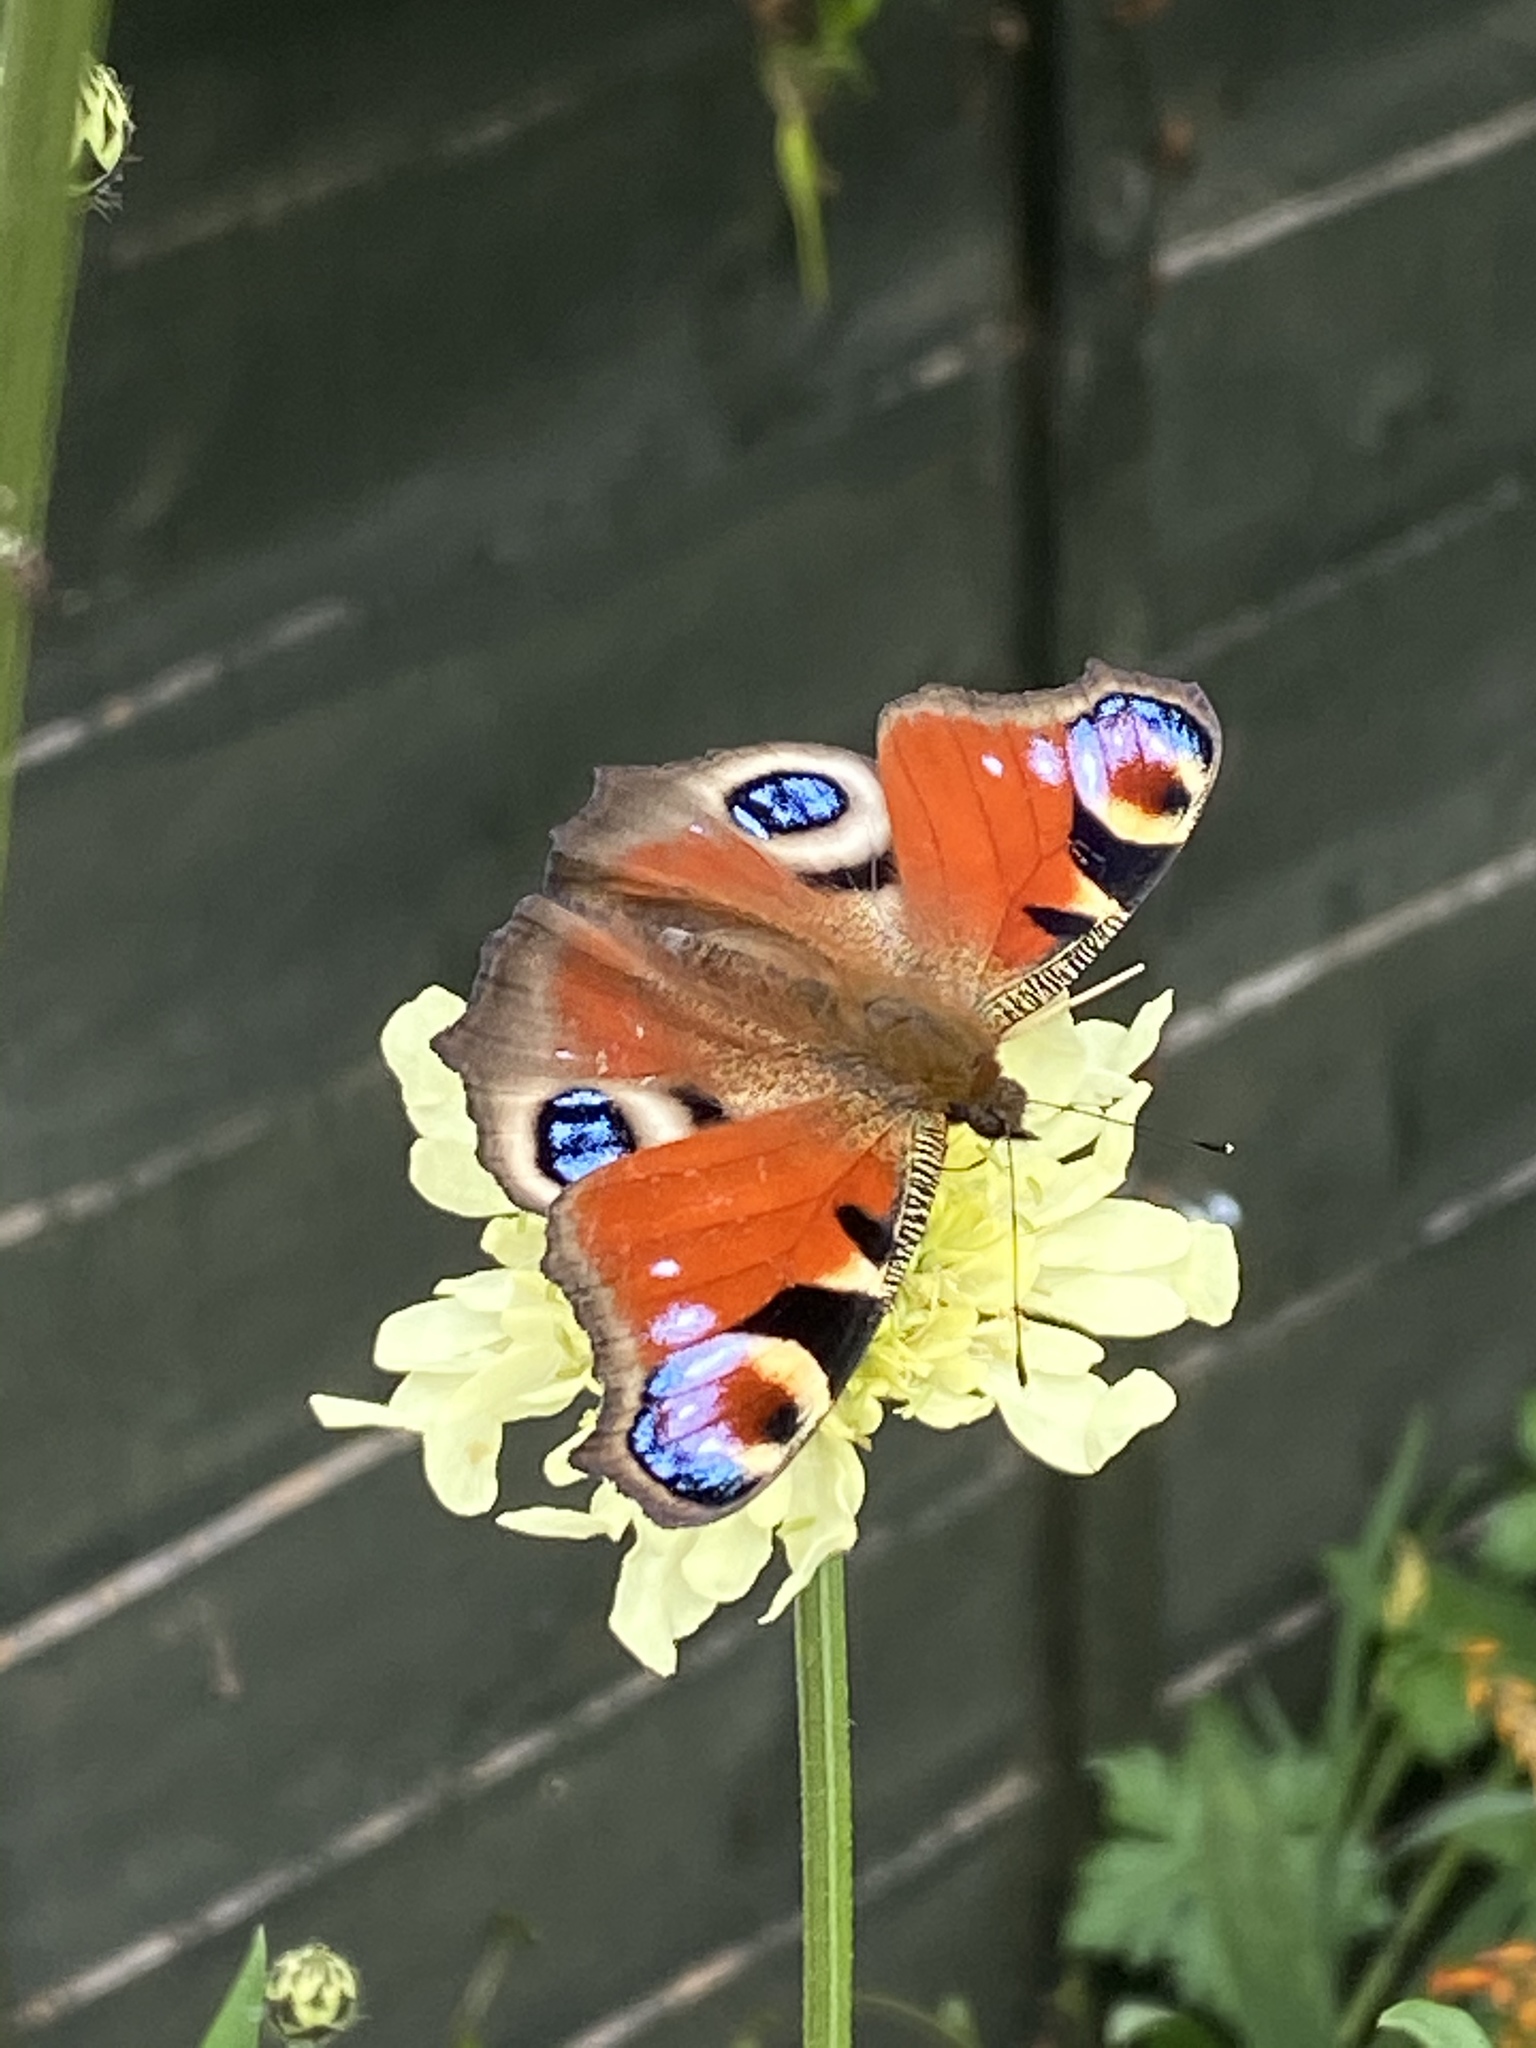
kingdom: Animalia
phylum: Arthropoda
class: Insecta
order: Lepidoptera
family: Nymphalidae
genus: Aglais
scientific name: Aglais io
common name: Peacock
